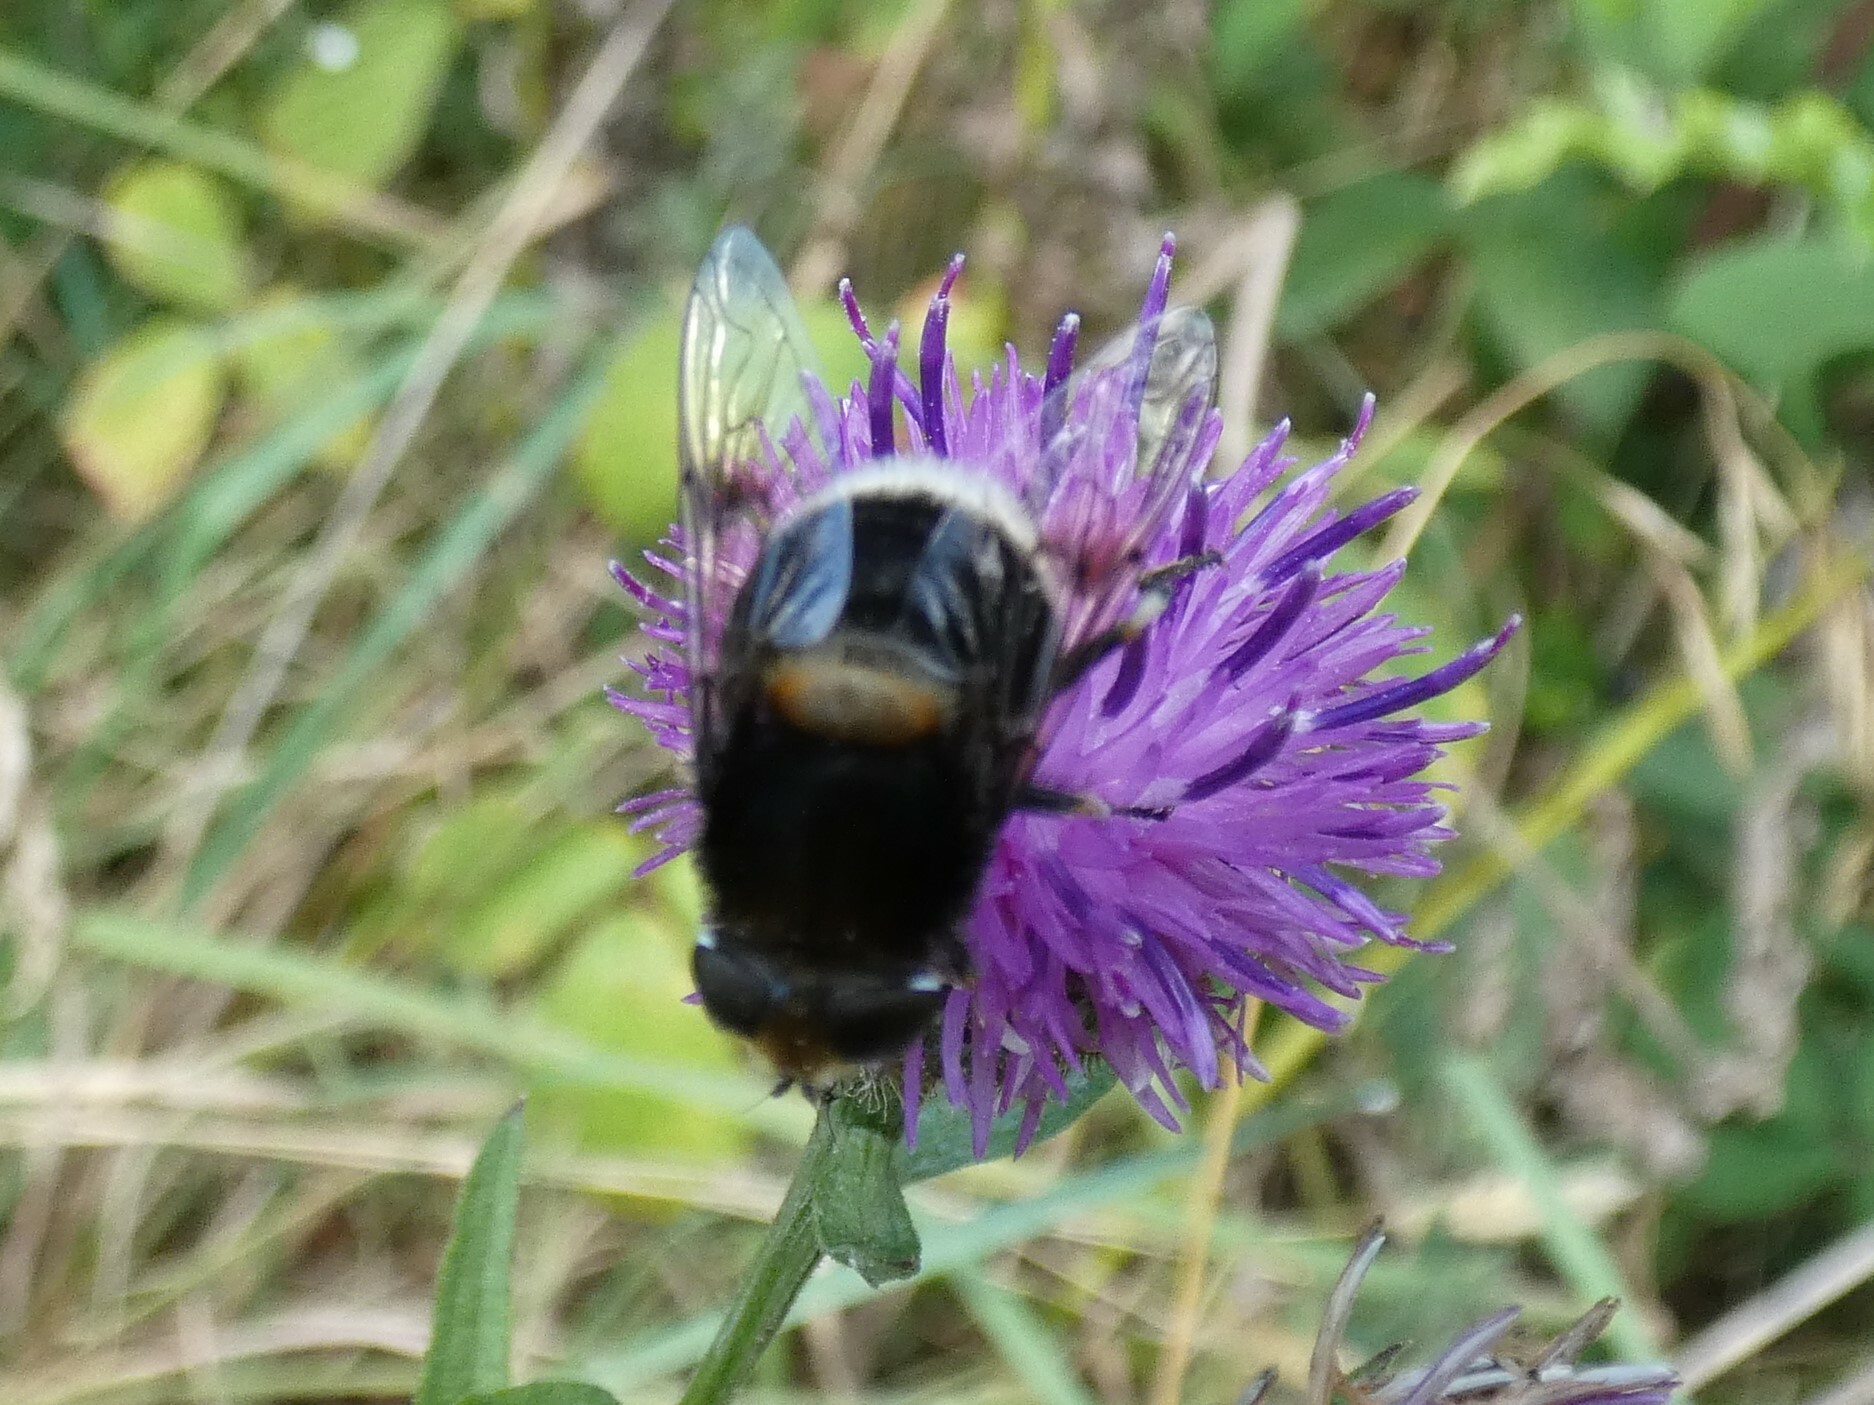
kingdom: Animalia
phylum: Arthropoda
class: Insecta
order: Diptera
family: Syrphidae
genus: Eristalis
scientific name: Eristalis intricaria
